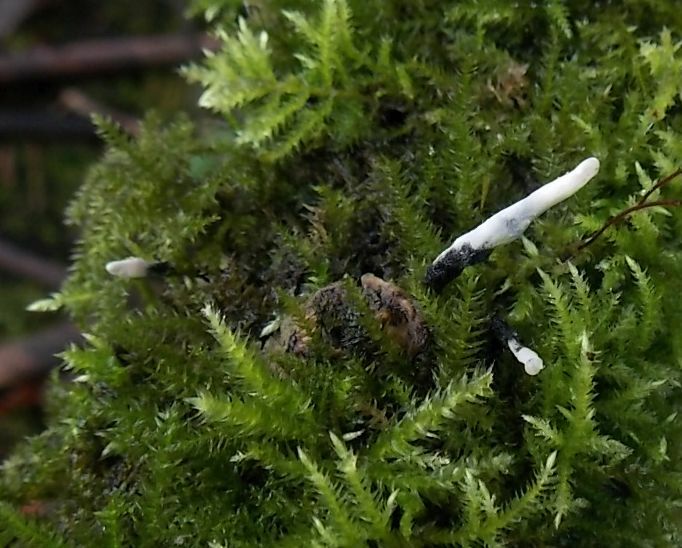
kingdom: Fungi
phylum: Ascomycota
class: Sordariomycetes
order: Xylariales
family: Xylariaceae
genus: Xylaria
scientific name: Xylaria hypoxylon
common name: Candle-snuff fungus
